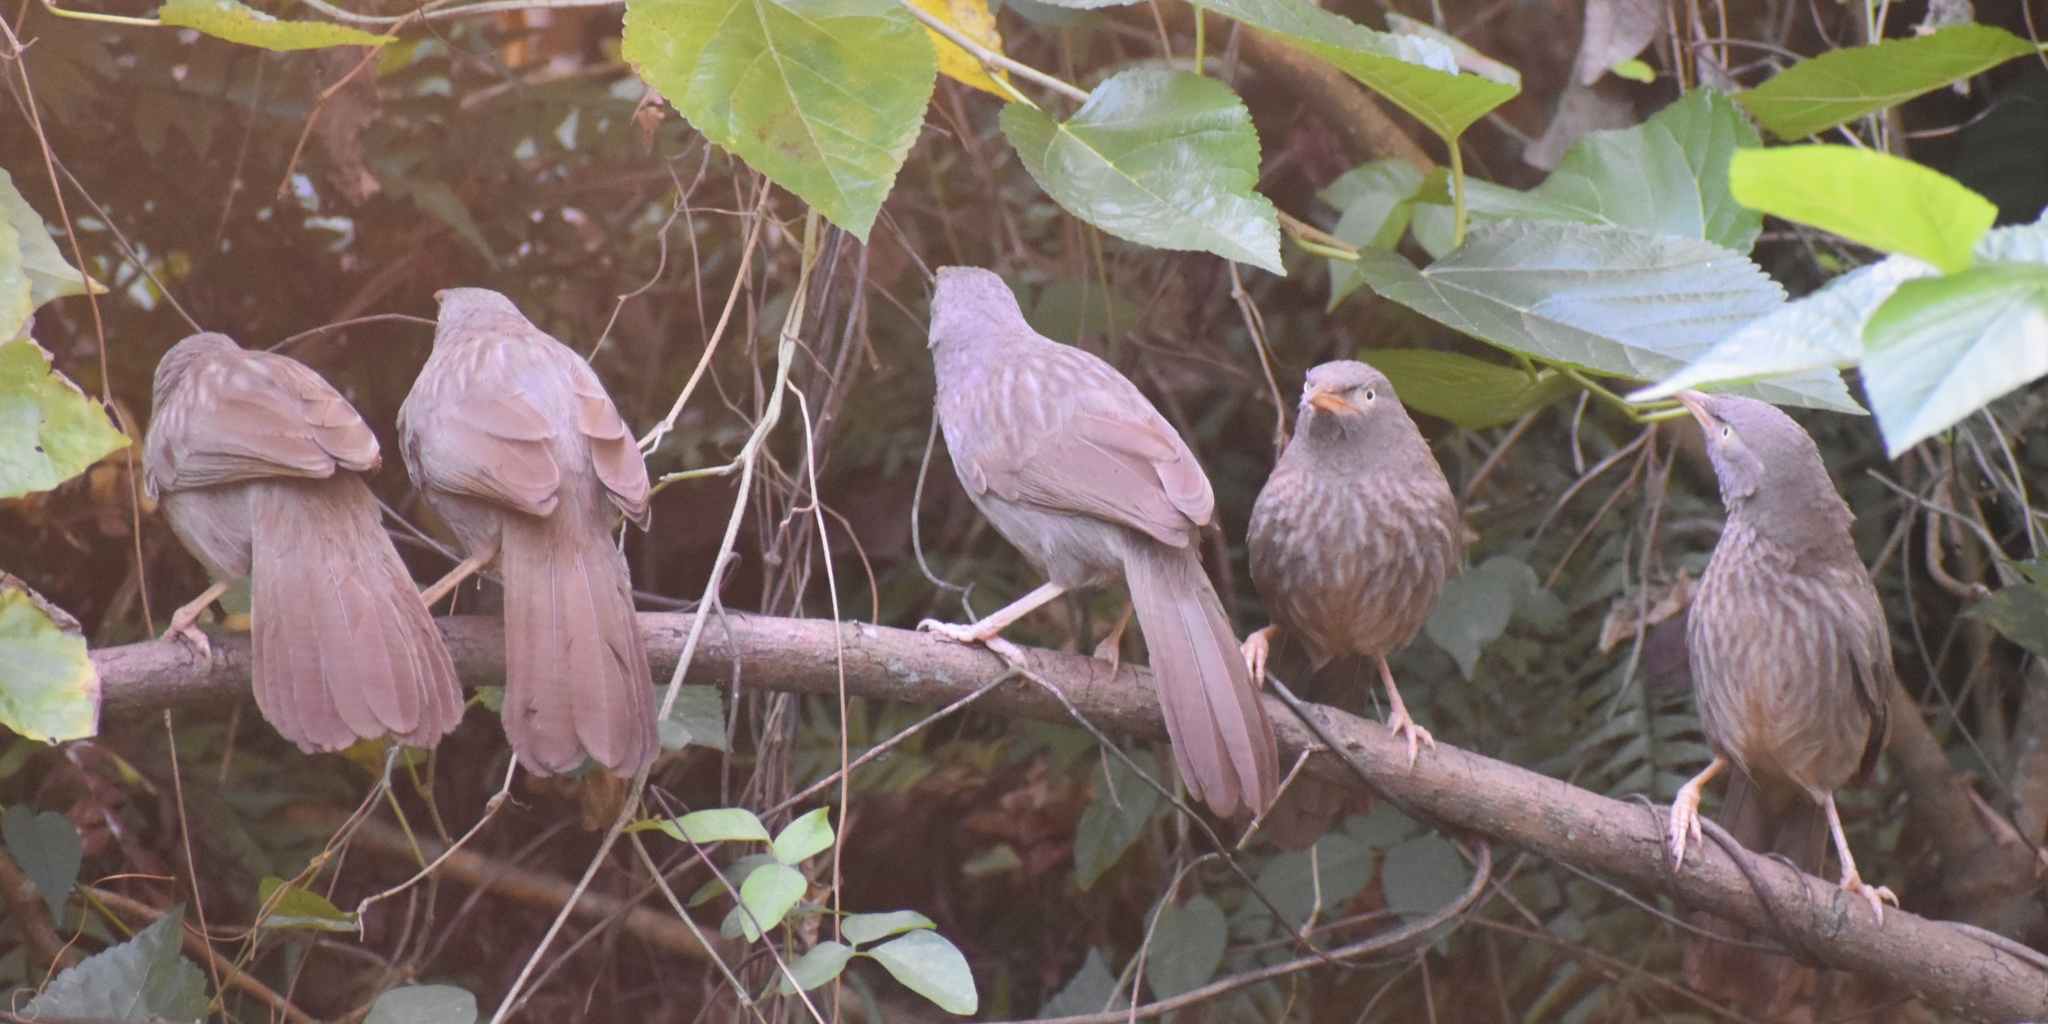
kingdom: Animalia
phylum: Chordata
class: Aves
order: Passeriformes
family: Leiothrichidae
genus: Turdoides
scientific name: Turdoides striata
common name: Jungle babbler
